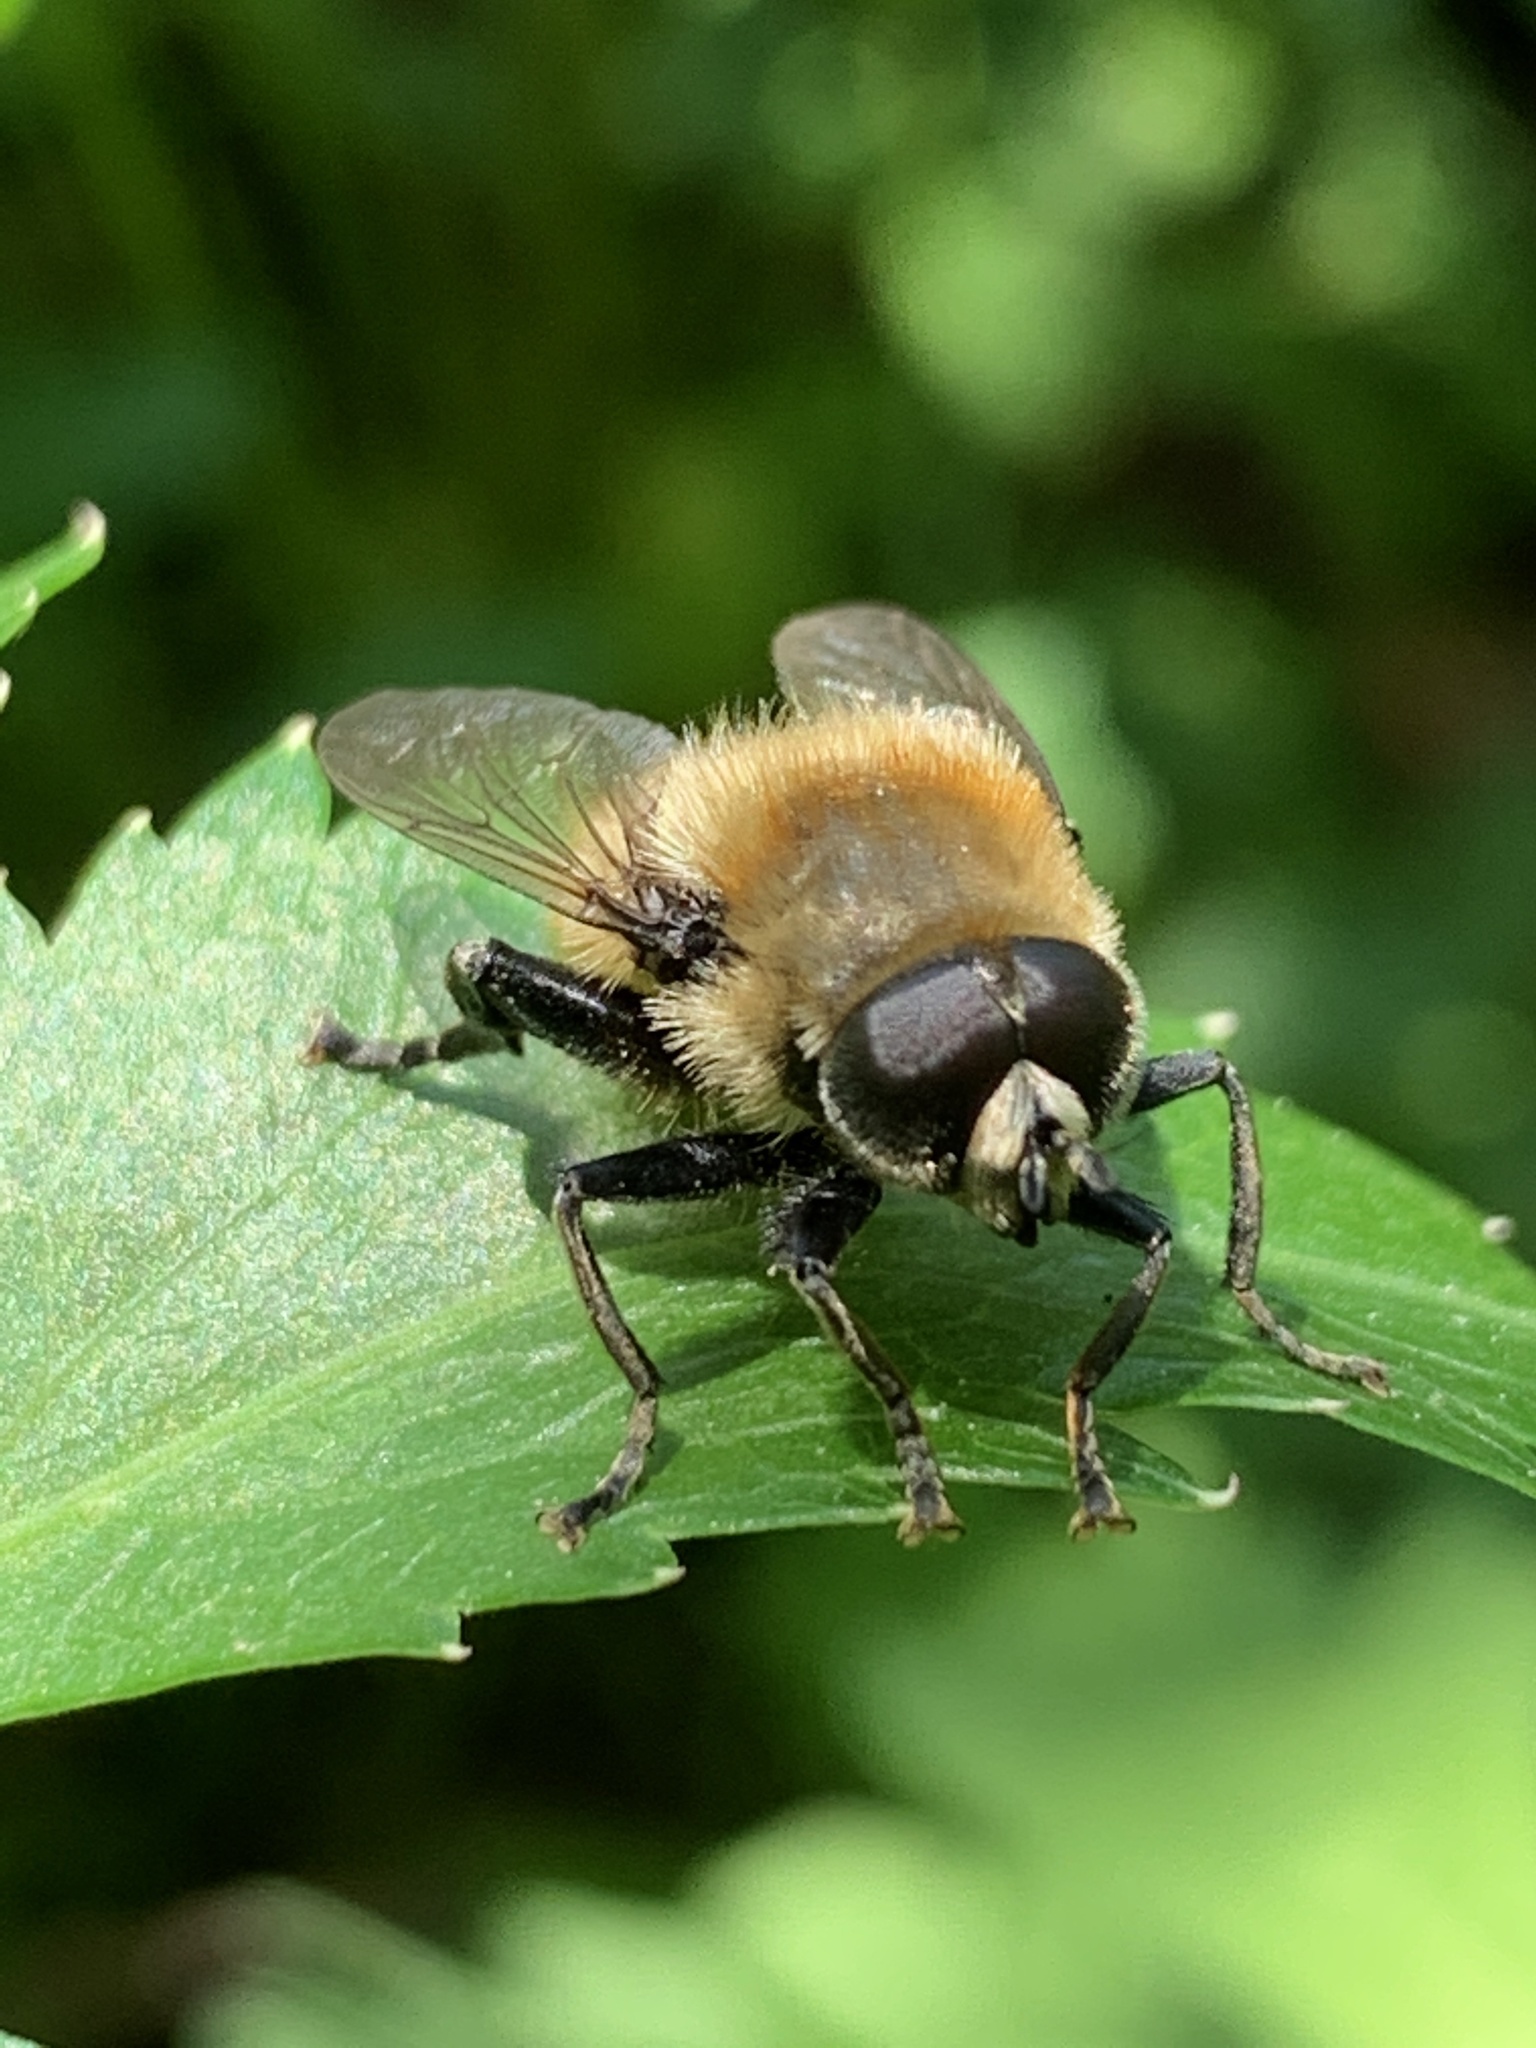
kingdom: Animalia
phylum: Arthropoda
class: Insecta
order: Diptera
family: Syrphidae
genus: Merodon
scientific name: Merodon equestris
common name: Greater bulb-fly
